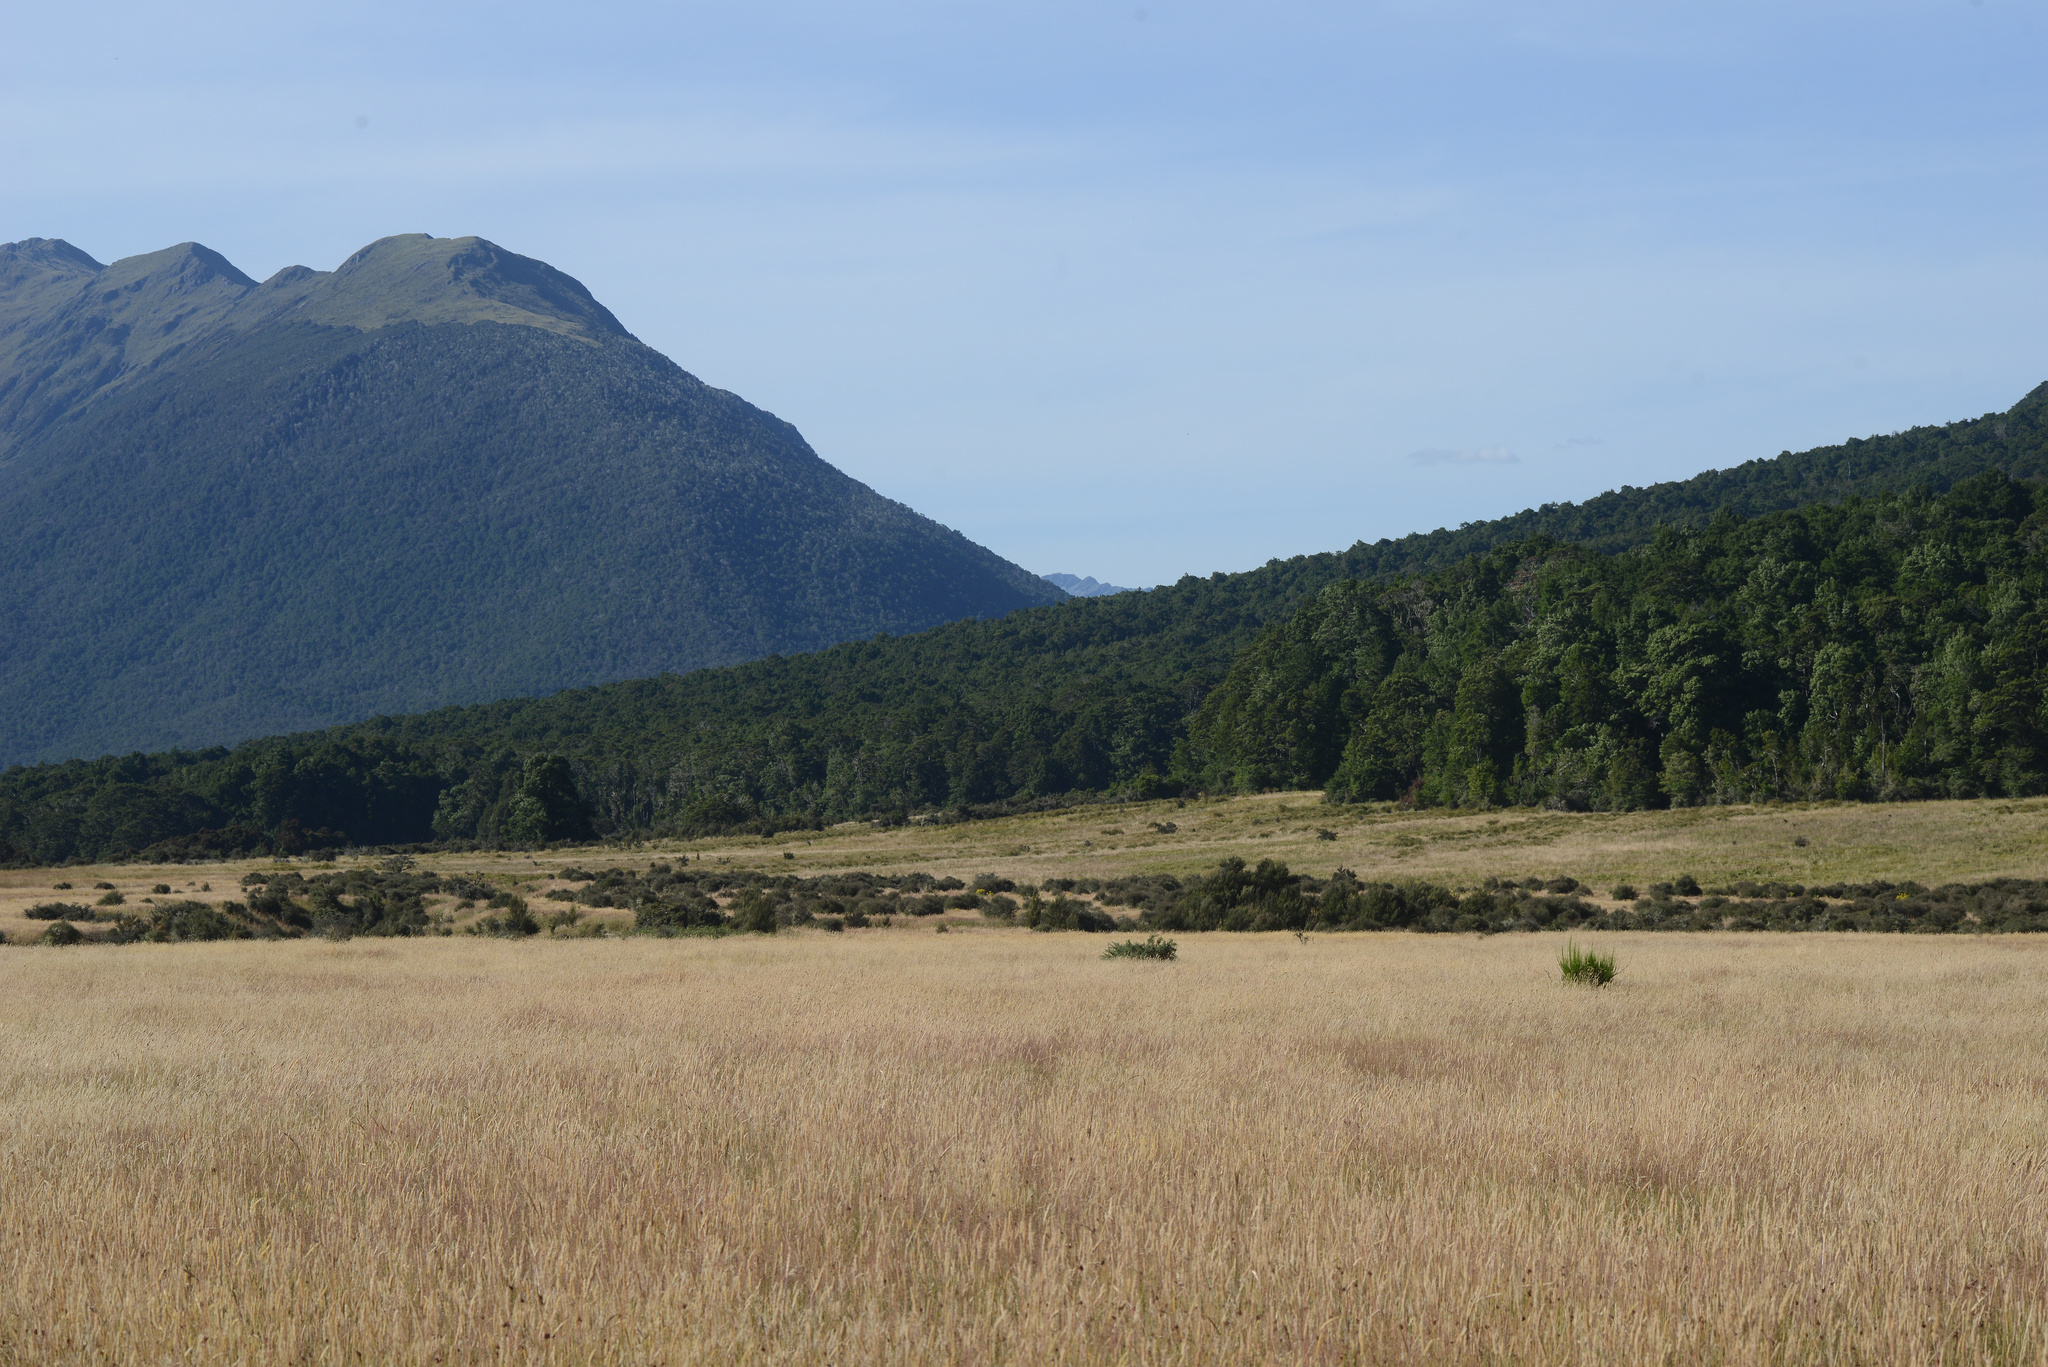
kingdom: Plantae
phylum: Tracheophyta
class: Magnoliopsida
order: Fabales
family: Fabaceae
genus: Ulex
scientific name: Ulex europaeus
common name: Common gorse
